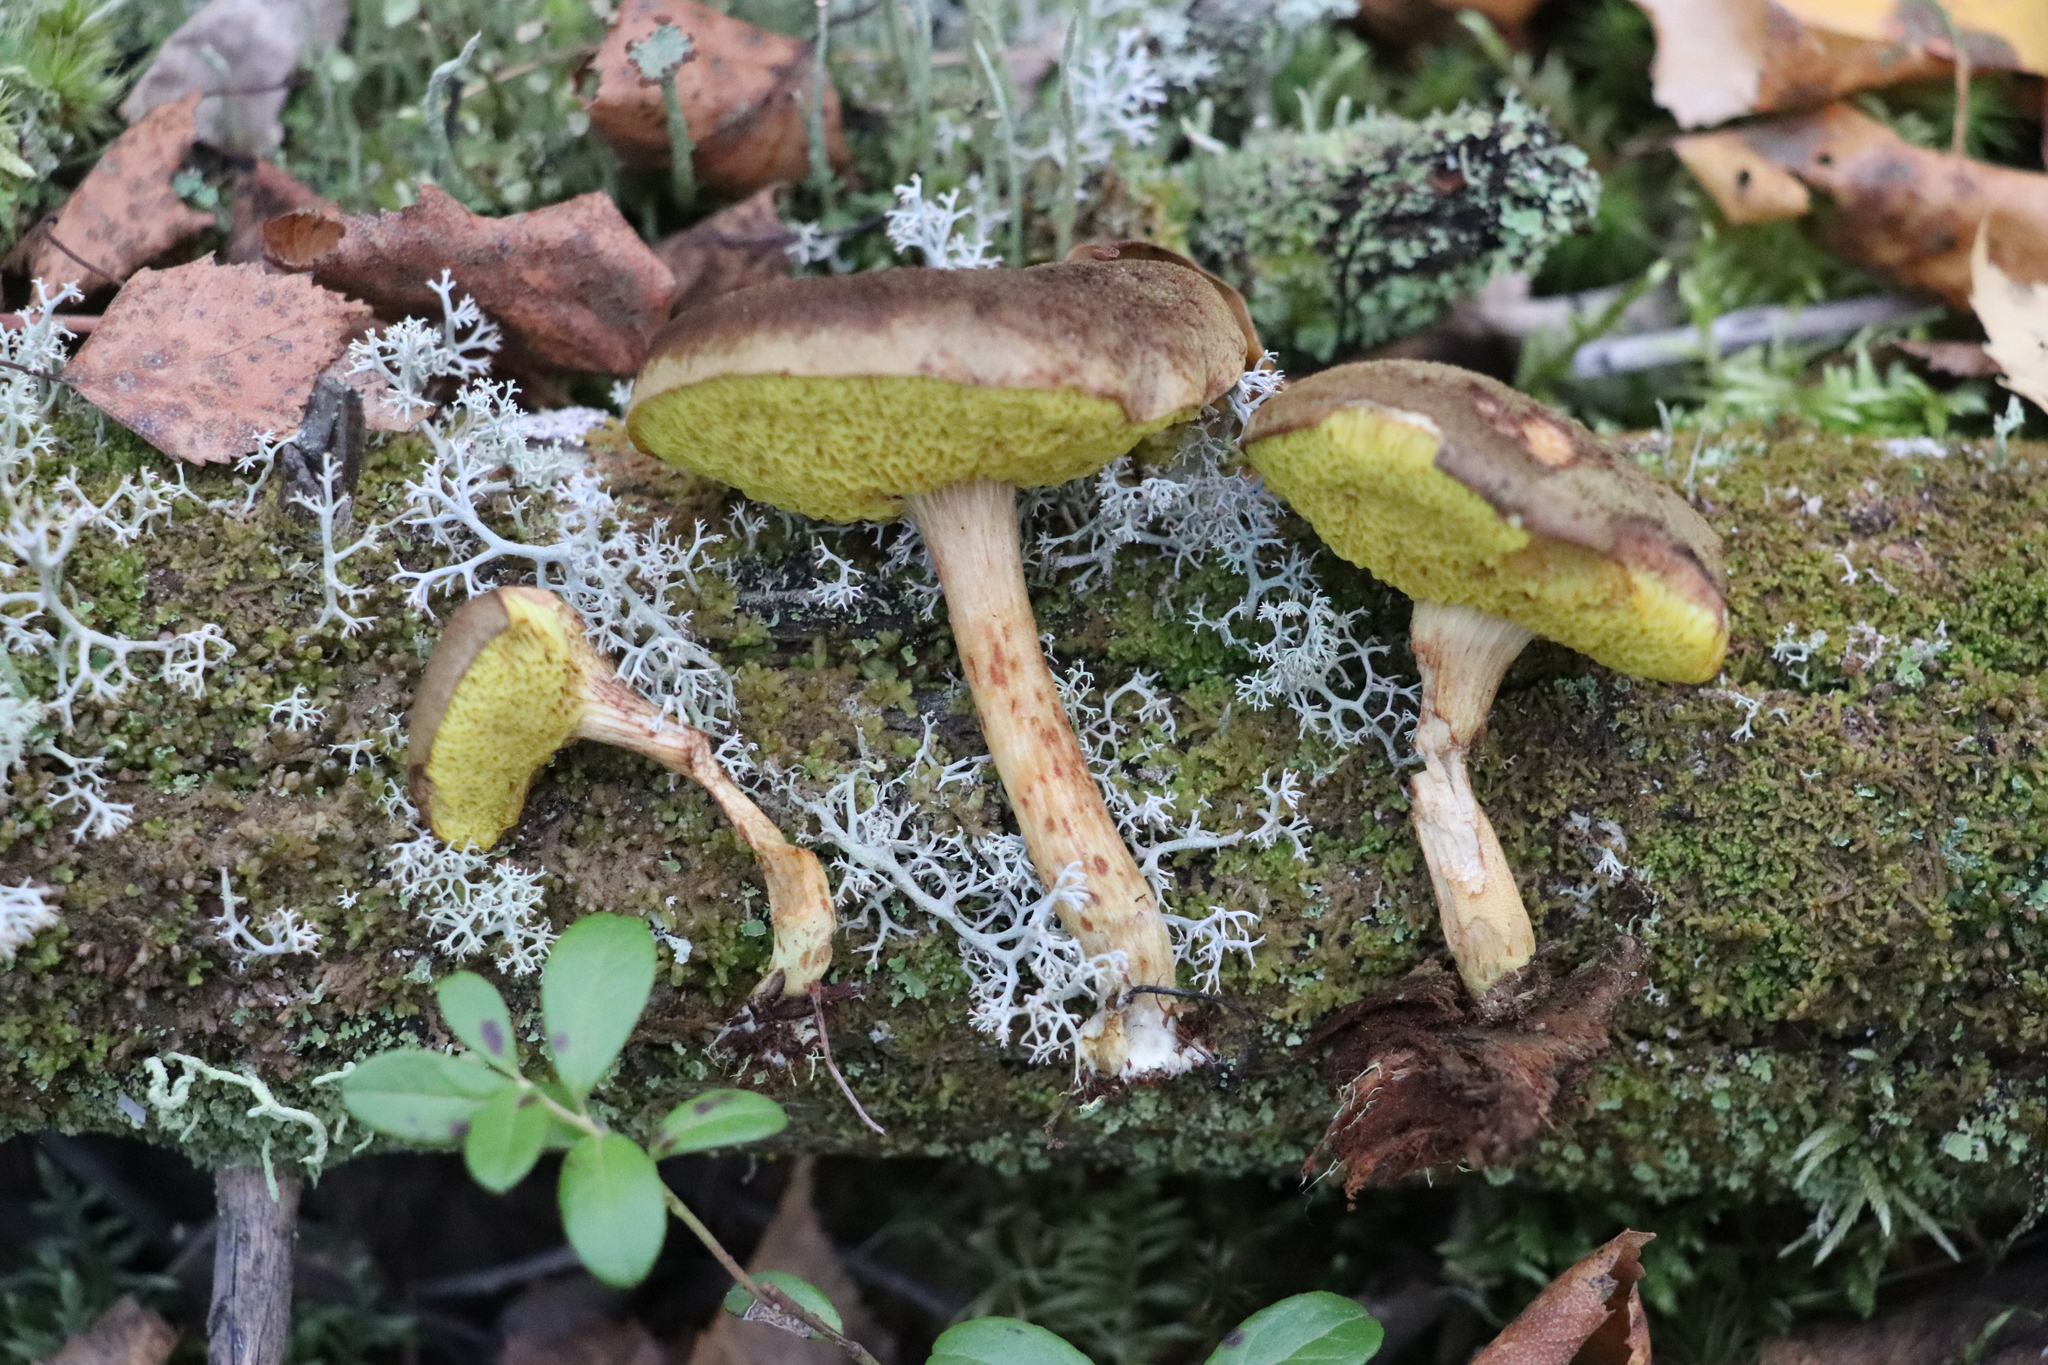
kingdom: Fungi
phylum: Basidiomycota
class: Agaricomycetes
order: Boletales
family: Boletaceae
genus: Xerocomus
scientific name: Xerocomus subtomentosus
